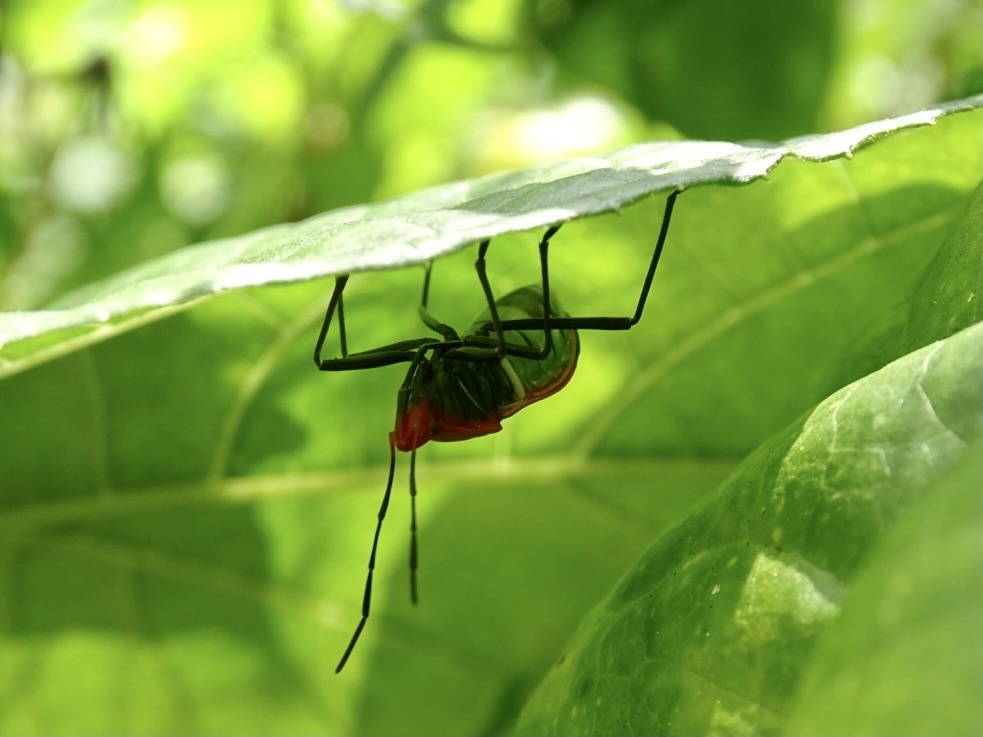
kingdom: Animalia
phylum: Arthropoda
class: Insecta
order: Hemiptera
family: Pyrrhocoridae
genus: Dindymus
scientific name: Dindymus
